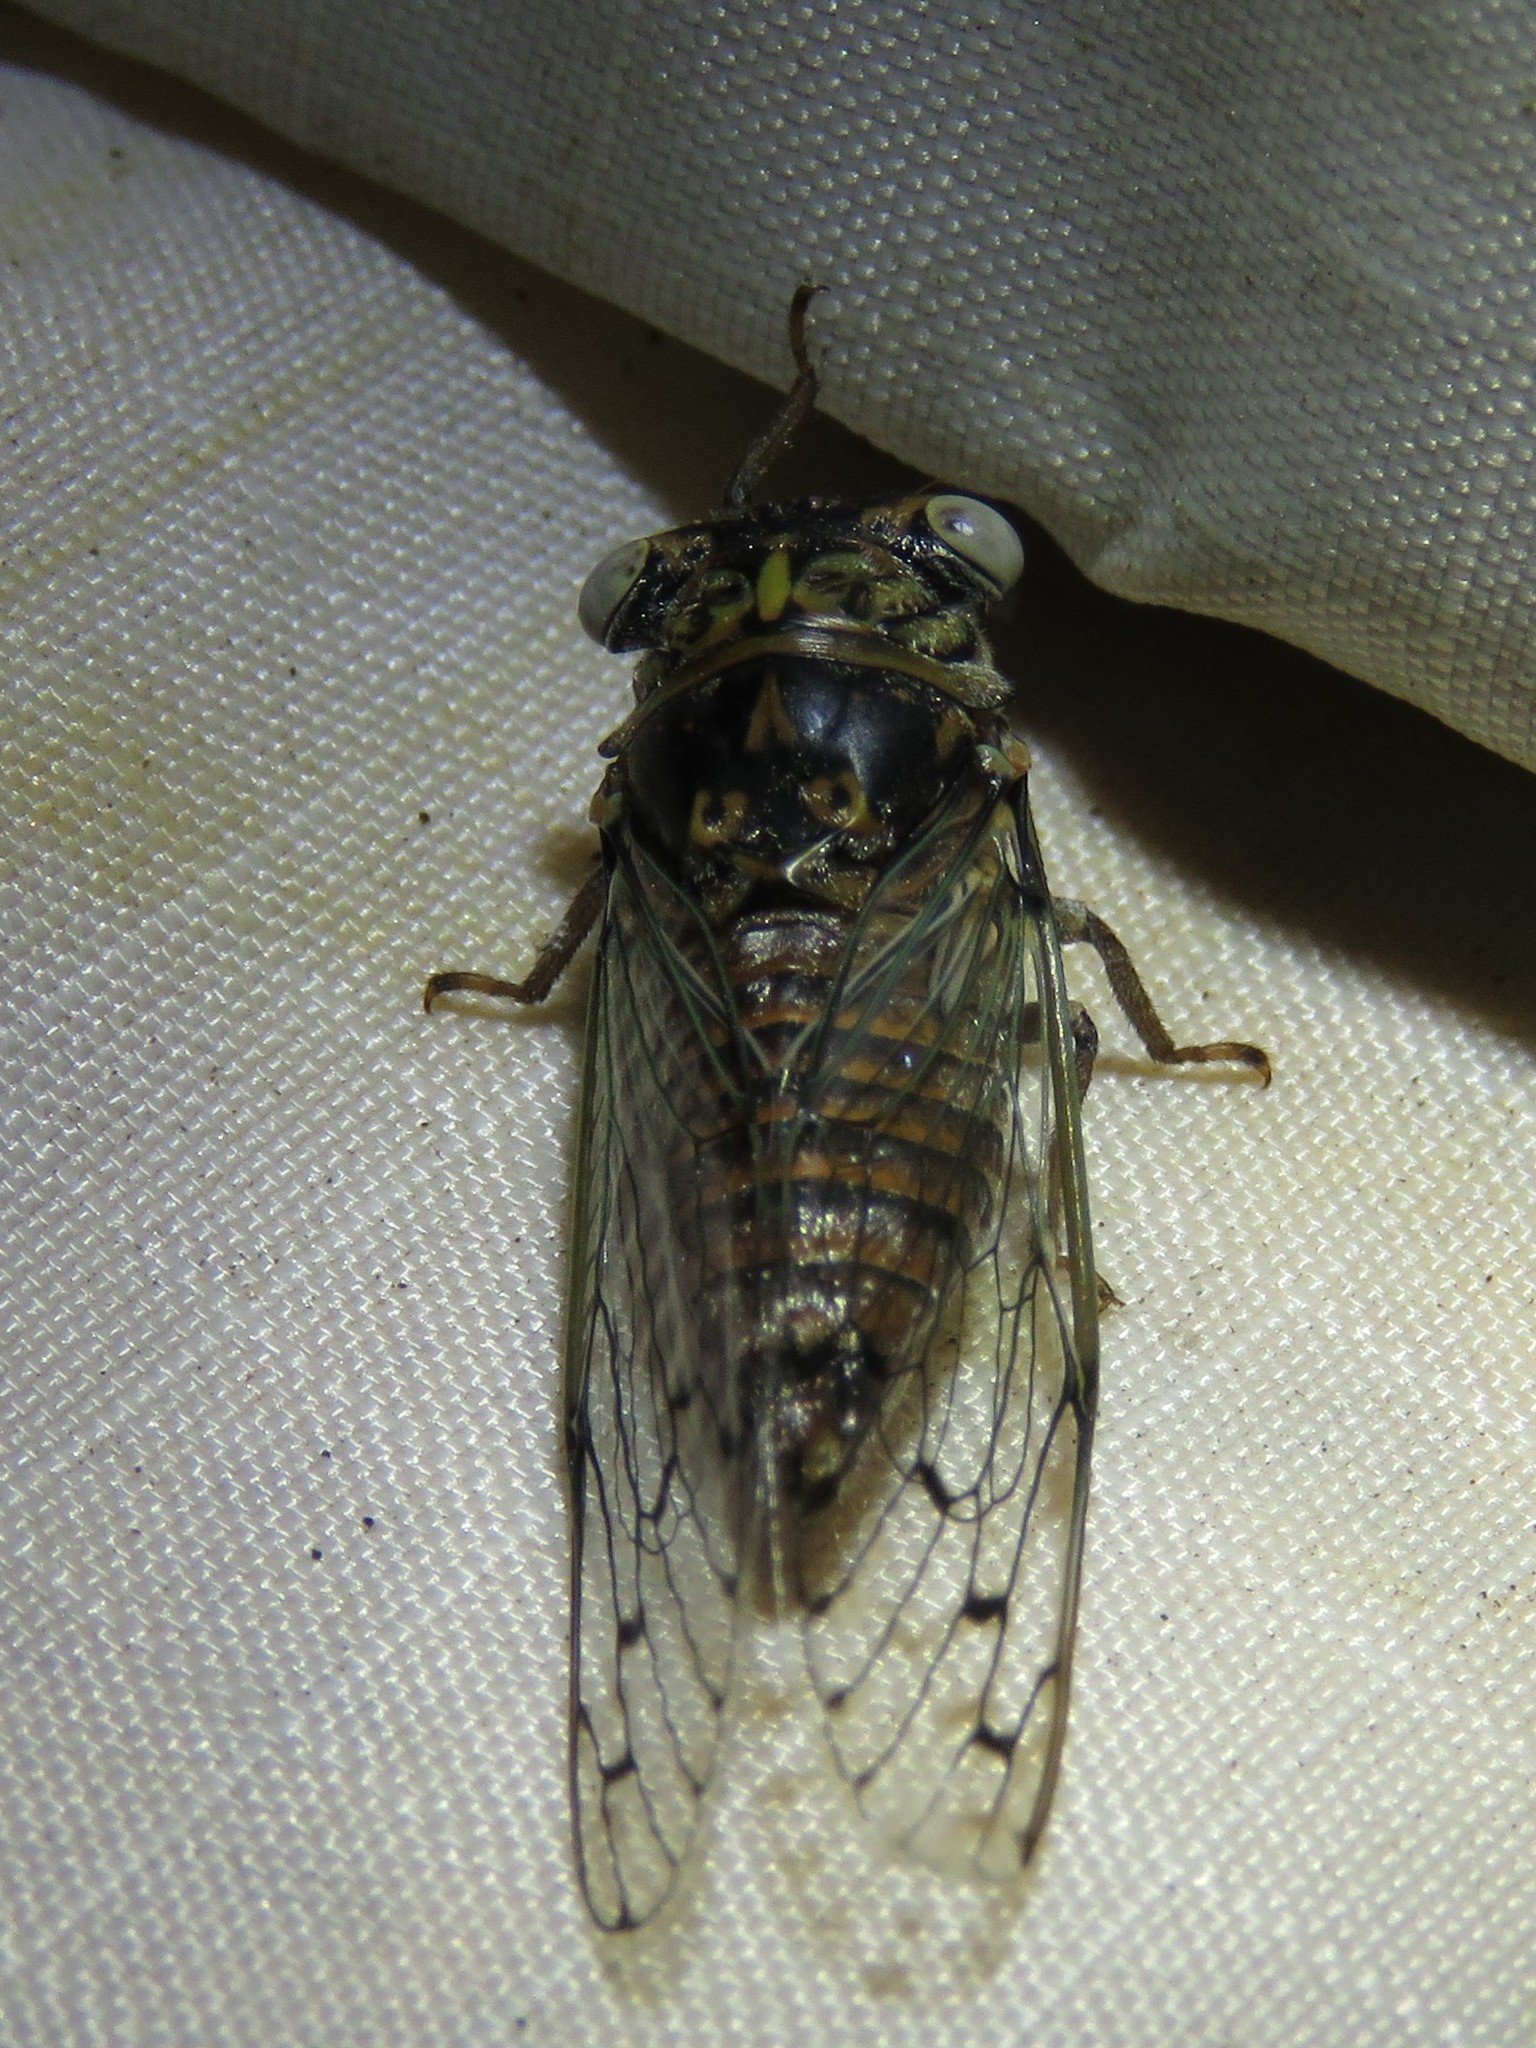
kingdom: Animalia
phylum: Arthropoda
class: Insecta
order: Hemiptera
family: Cicadidae
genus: Pacarina
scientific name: Pacarina puella
